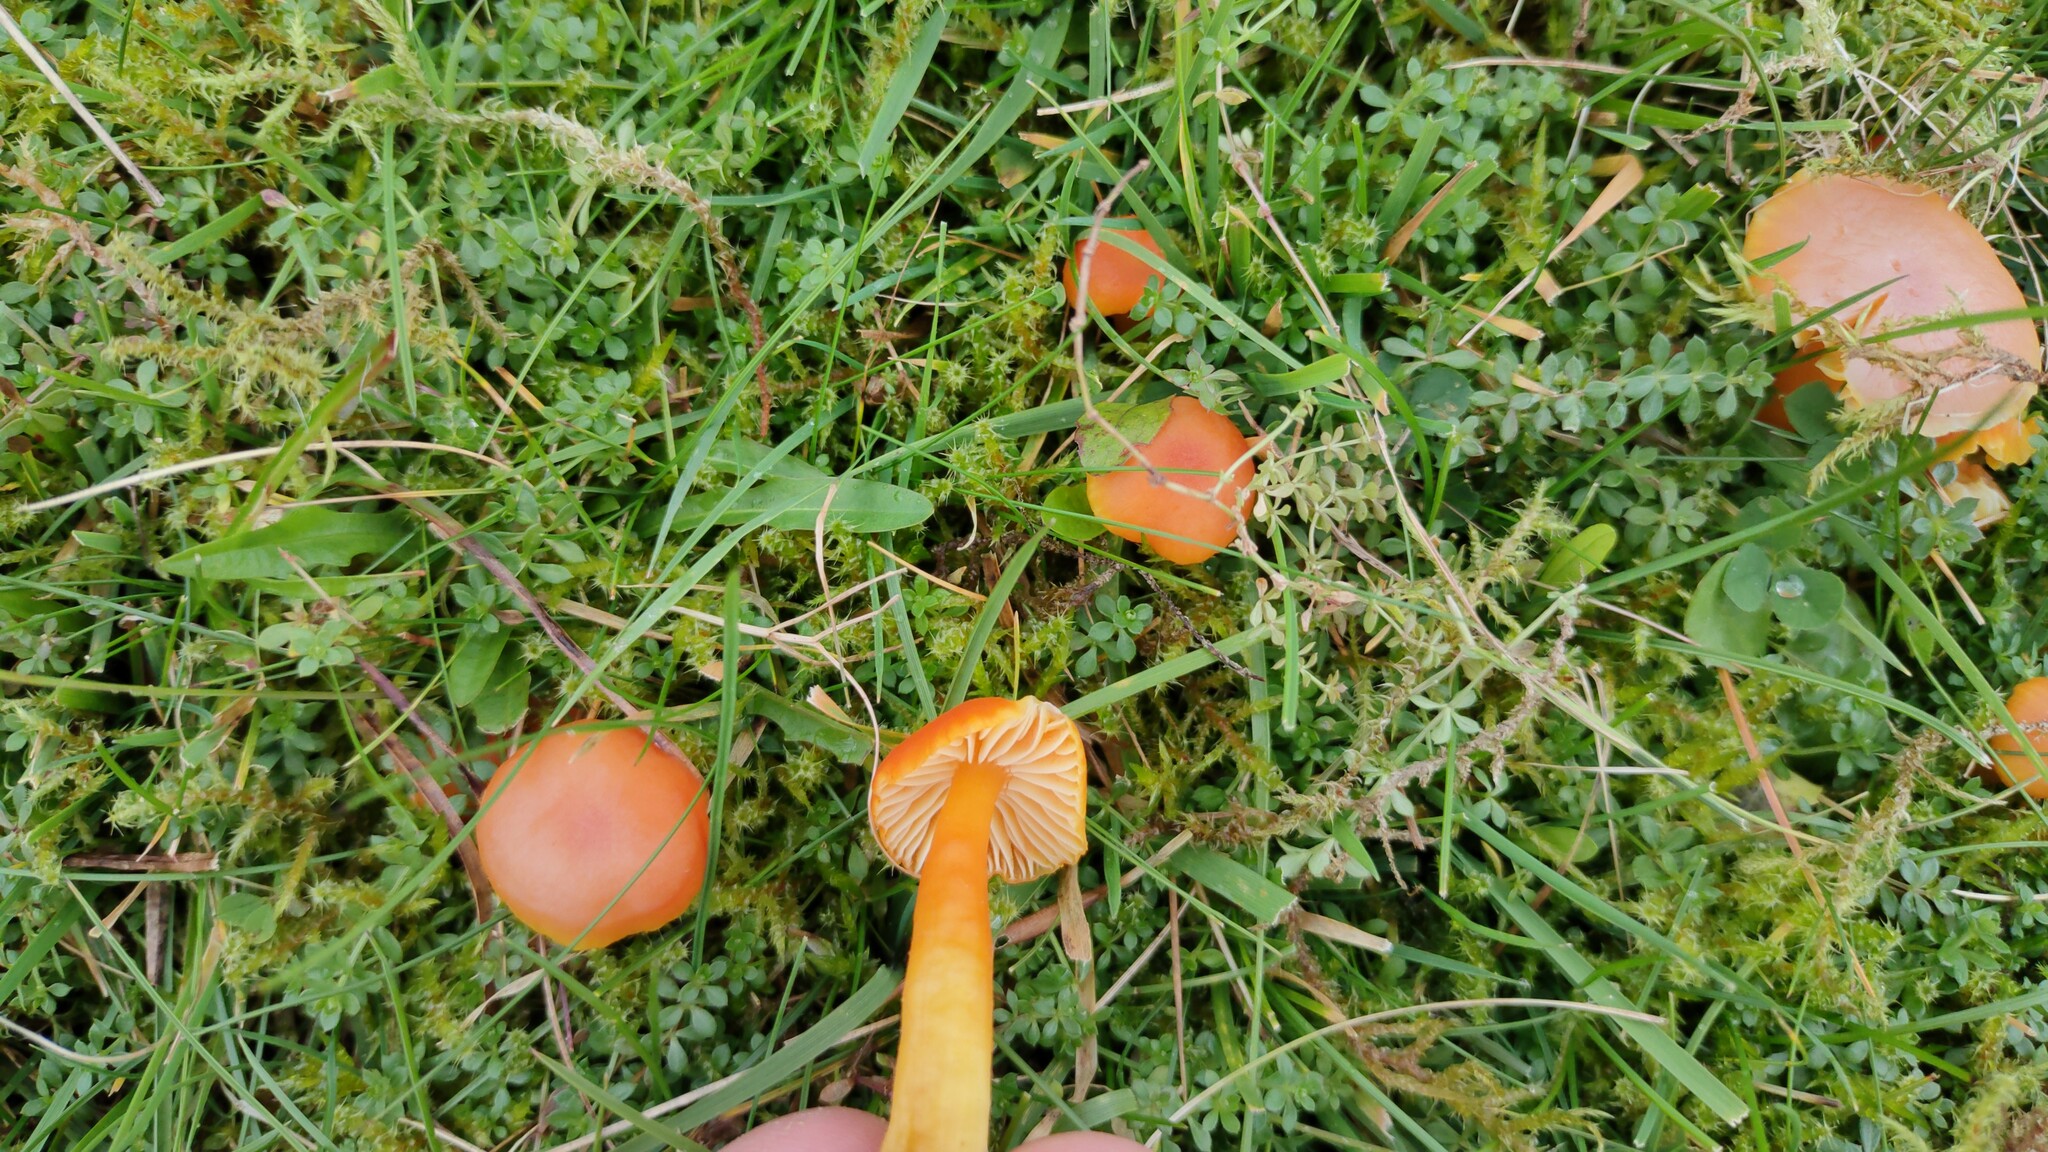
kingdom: Fungi
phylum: Basidiomycota
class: Agaricomycetes
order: Agaricales
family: Hygrophoraceae
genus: Hygrocybe
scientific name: Hygrocybe reidii
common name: Honey waxcap
